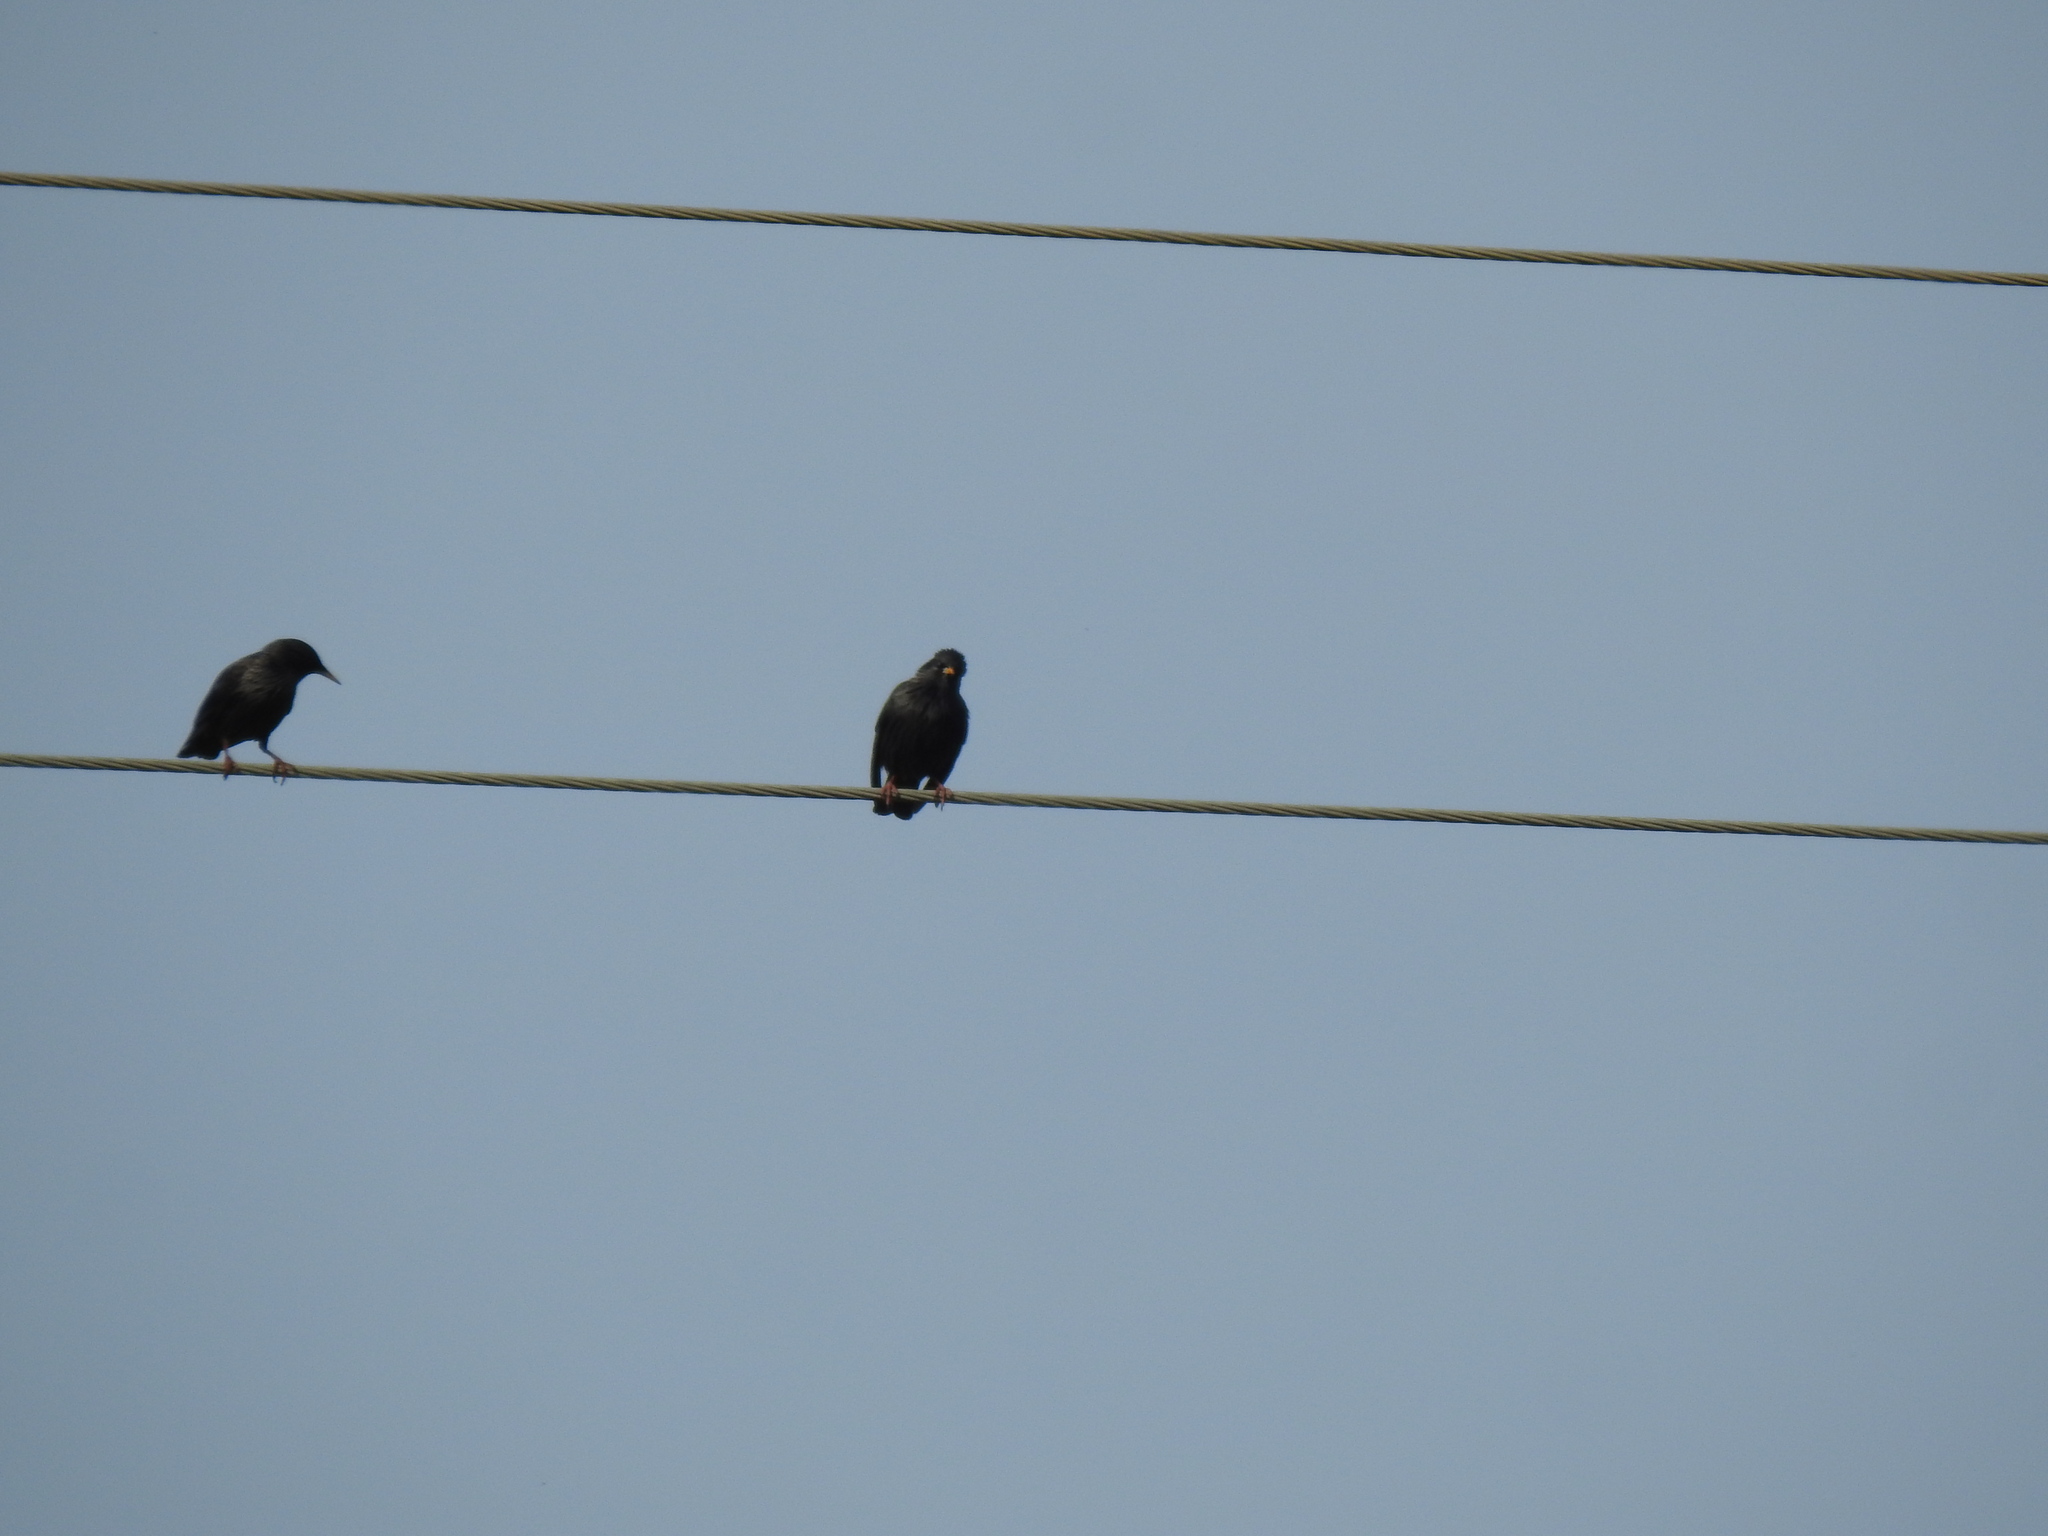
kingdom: Animalia
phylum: Chordata
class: Aves
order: Passeriformes
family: Sturnidae
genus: Sturnus
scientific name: Sturnus unicolor
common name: Spotless starling
